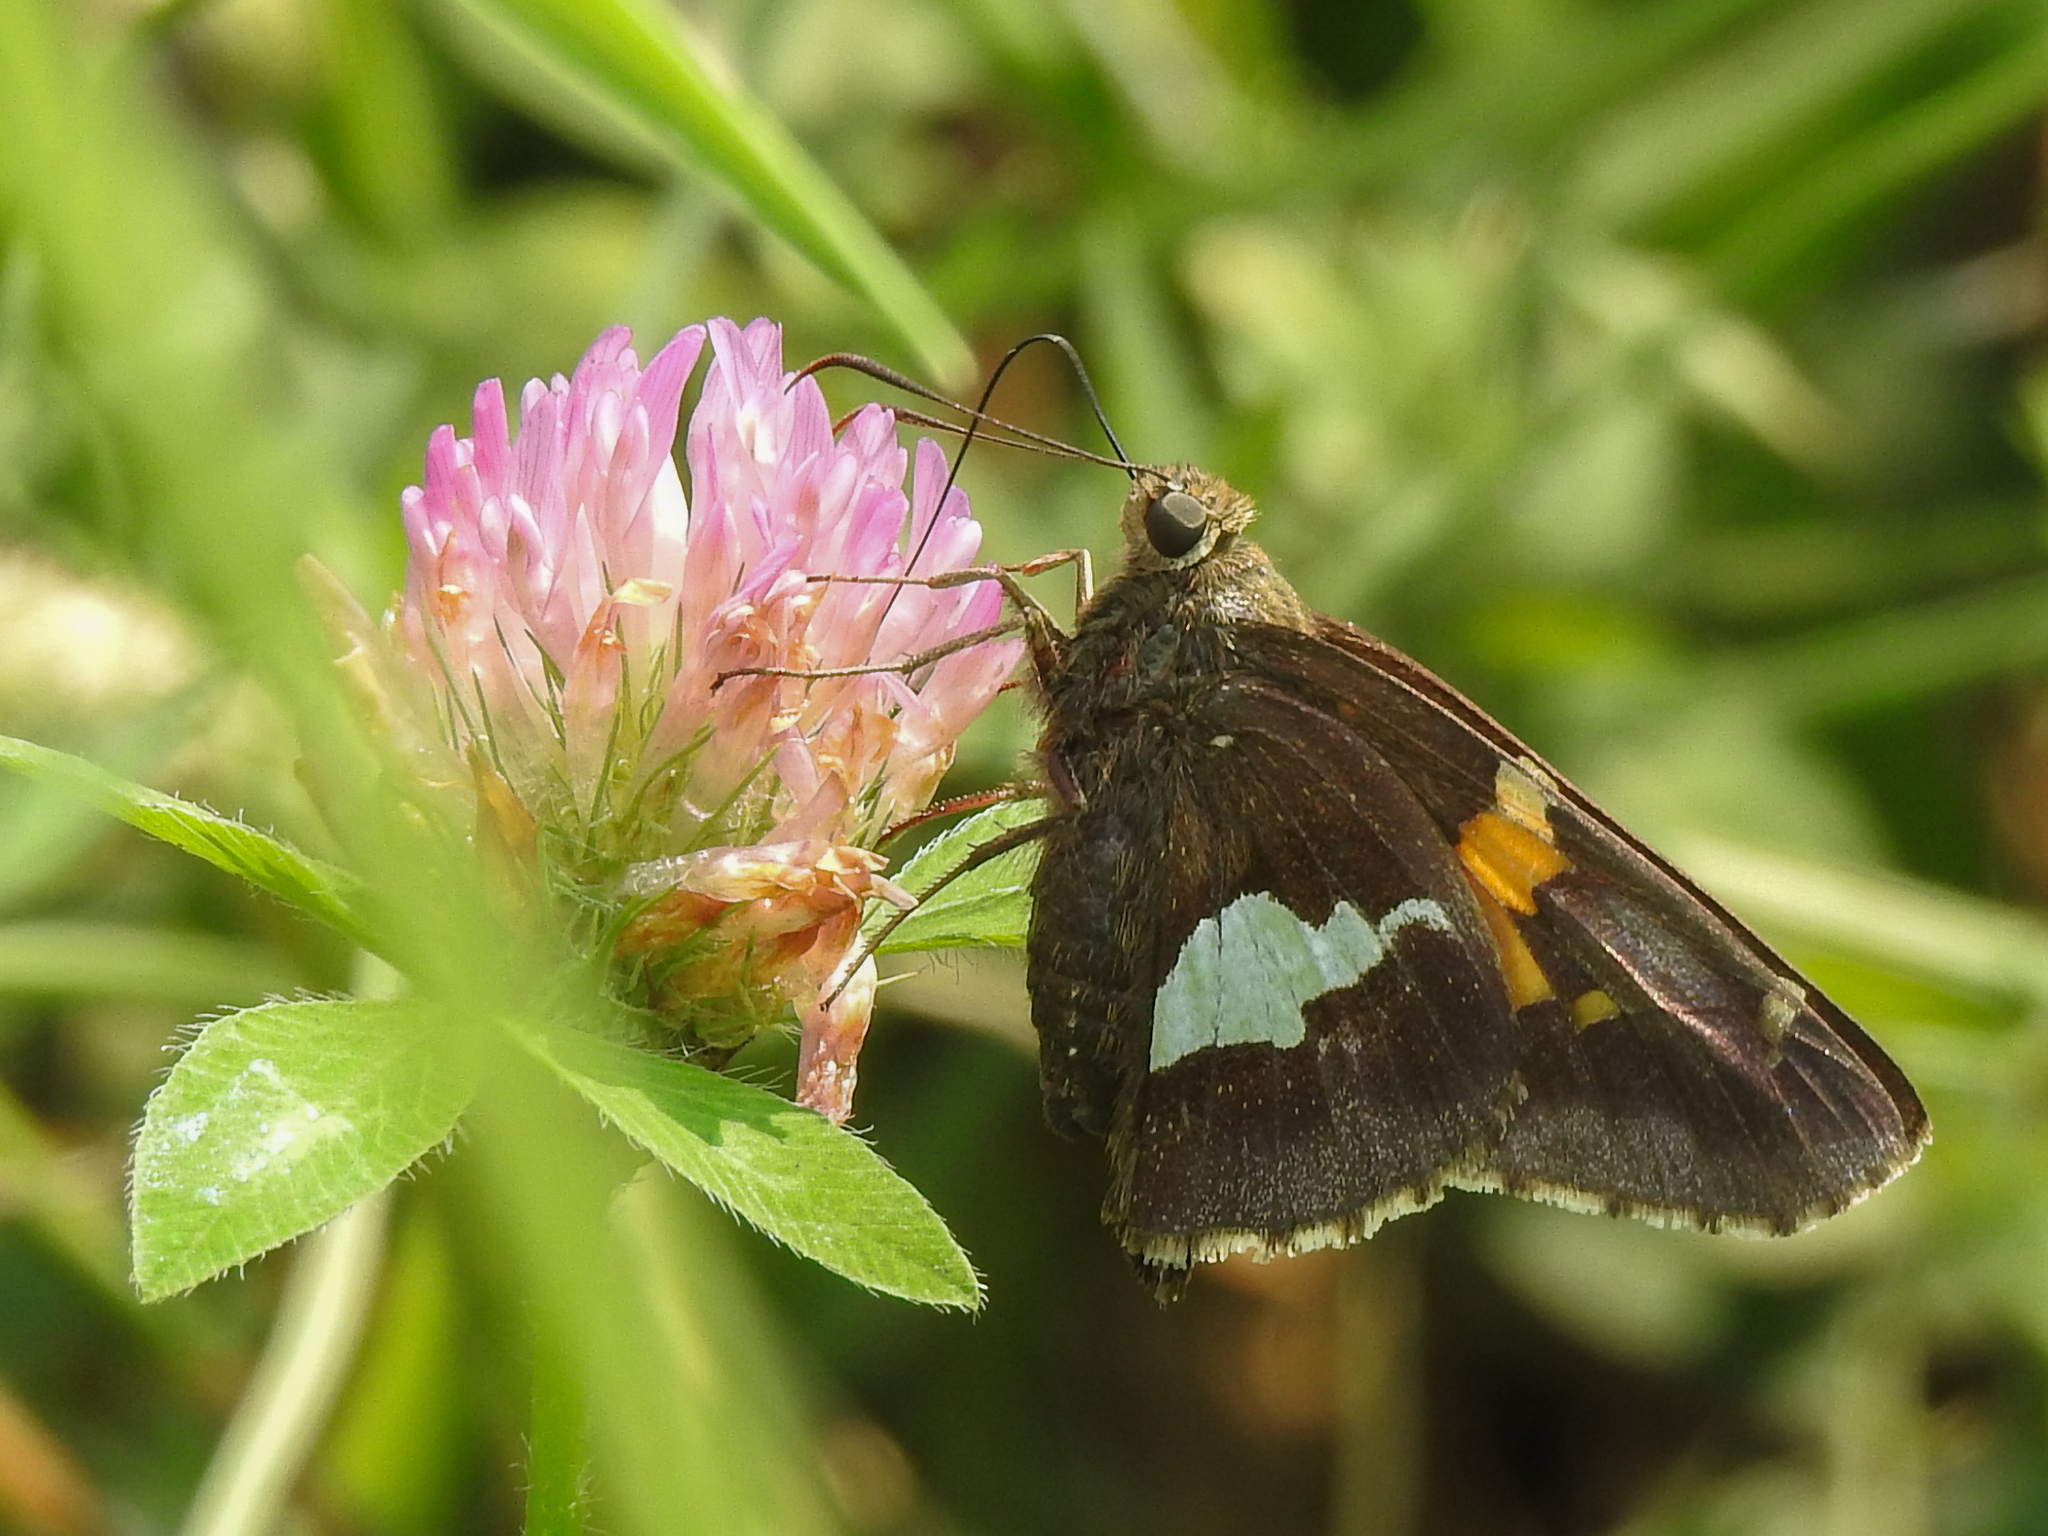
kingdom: Animalia
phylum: Arthropoda
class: Insecta
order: Lepidoptera
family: Hesperiidae
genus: Epargyreus
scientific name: Epargyreus clarus
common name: Silver-spotted skipper
